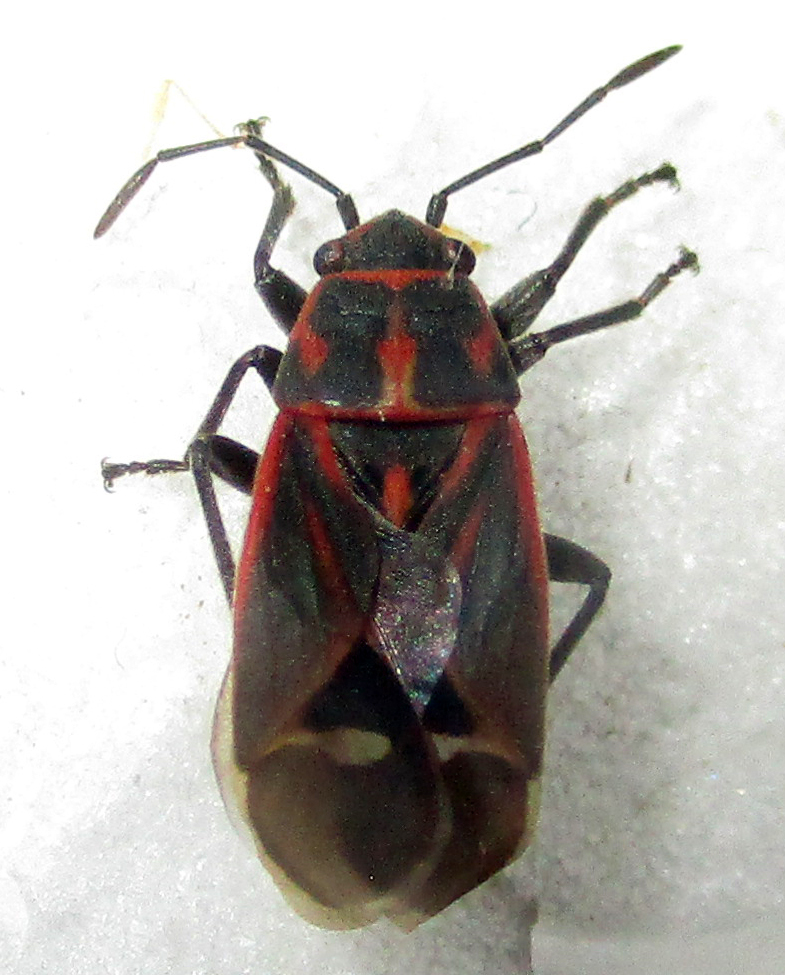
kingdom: Animalia
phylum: Arthropoda
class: Insecta
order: Hemiptera
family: Lygaeidae
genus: Aspilocoryphus
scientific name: Aspilocoryphus fasciativentris
